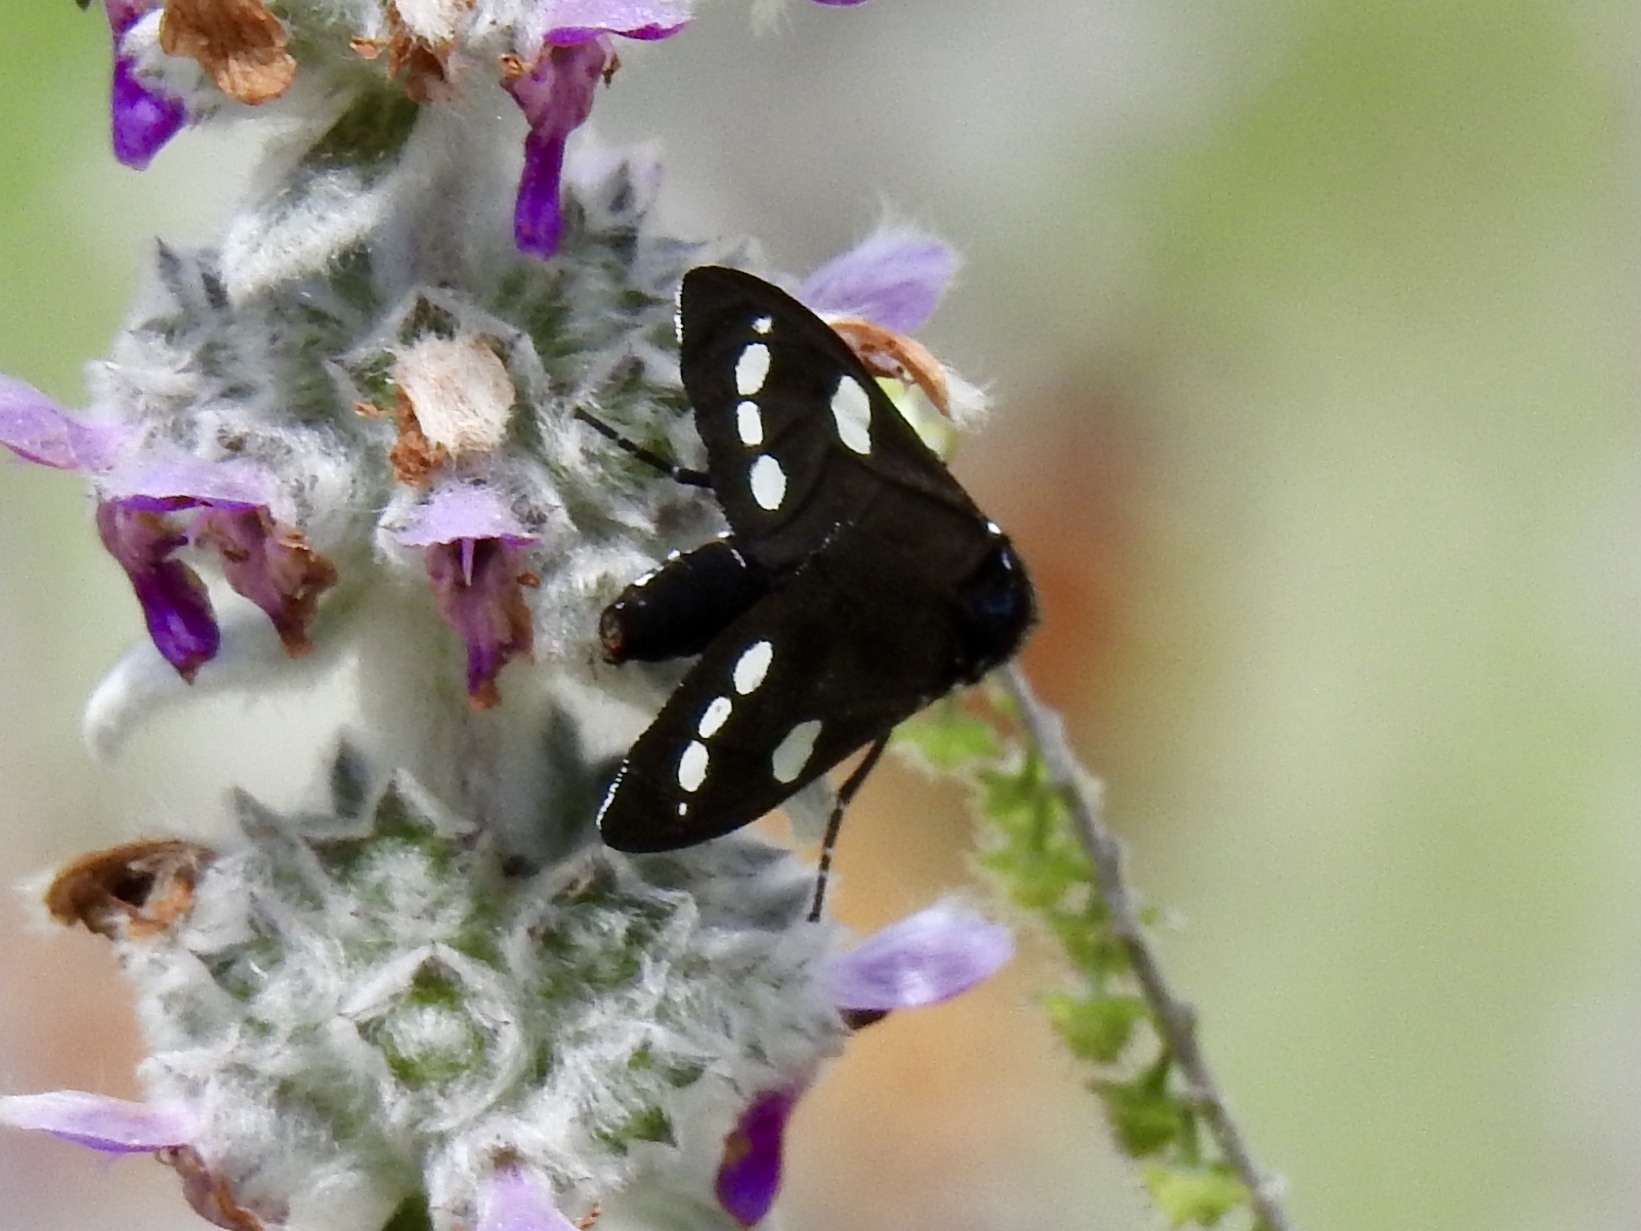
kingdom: Animalia
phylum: Arthropoda
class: Insecta
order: Lepidoptera
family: Erebidae
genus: Gnophaela
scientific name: Gnophaela clappiana
